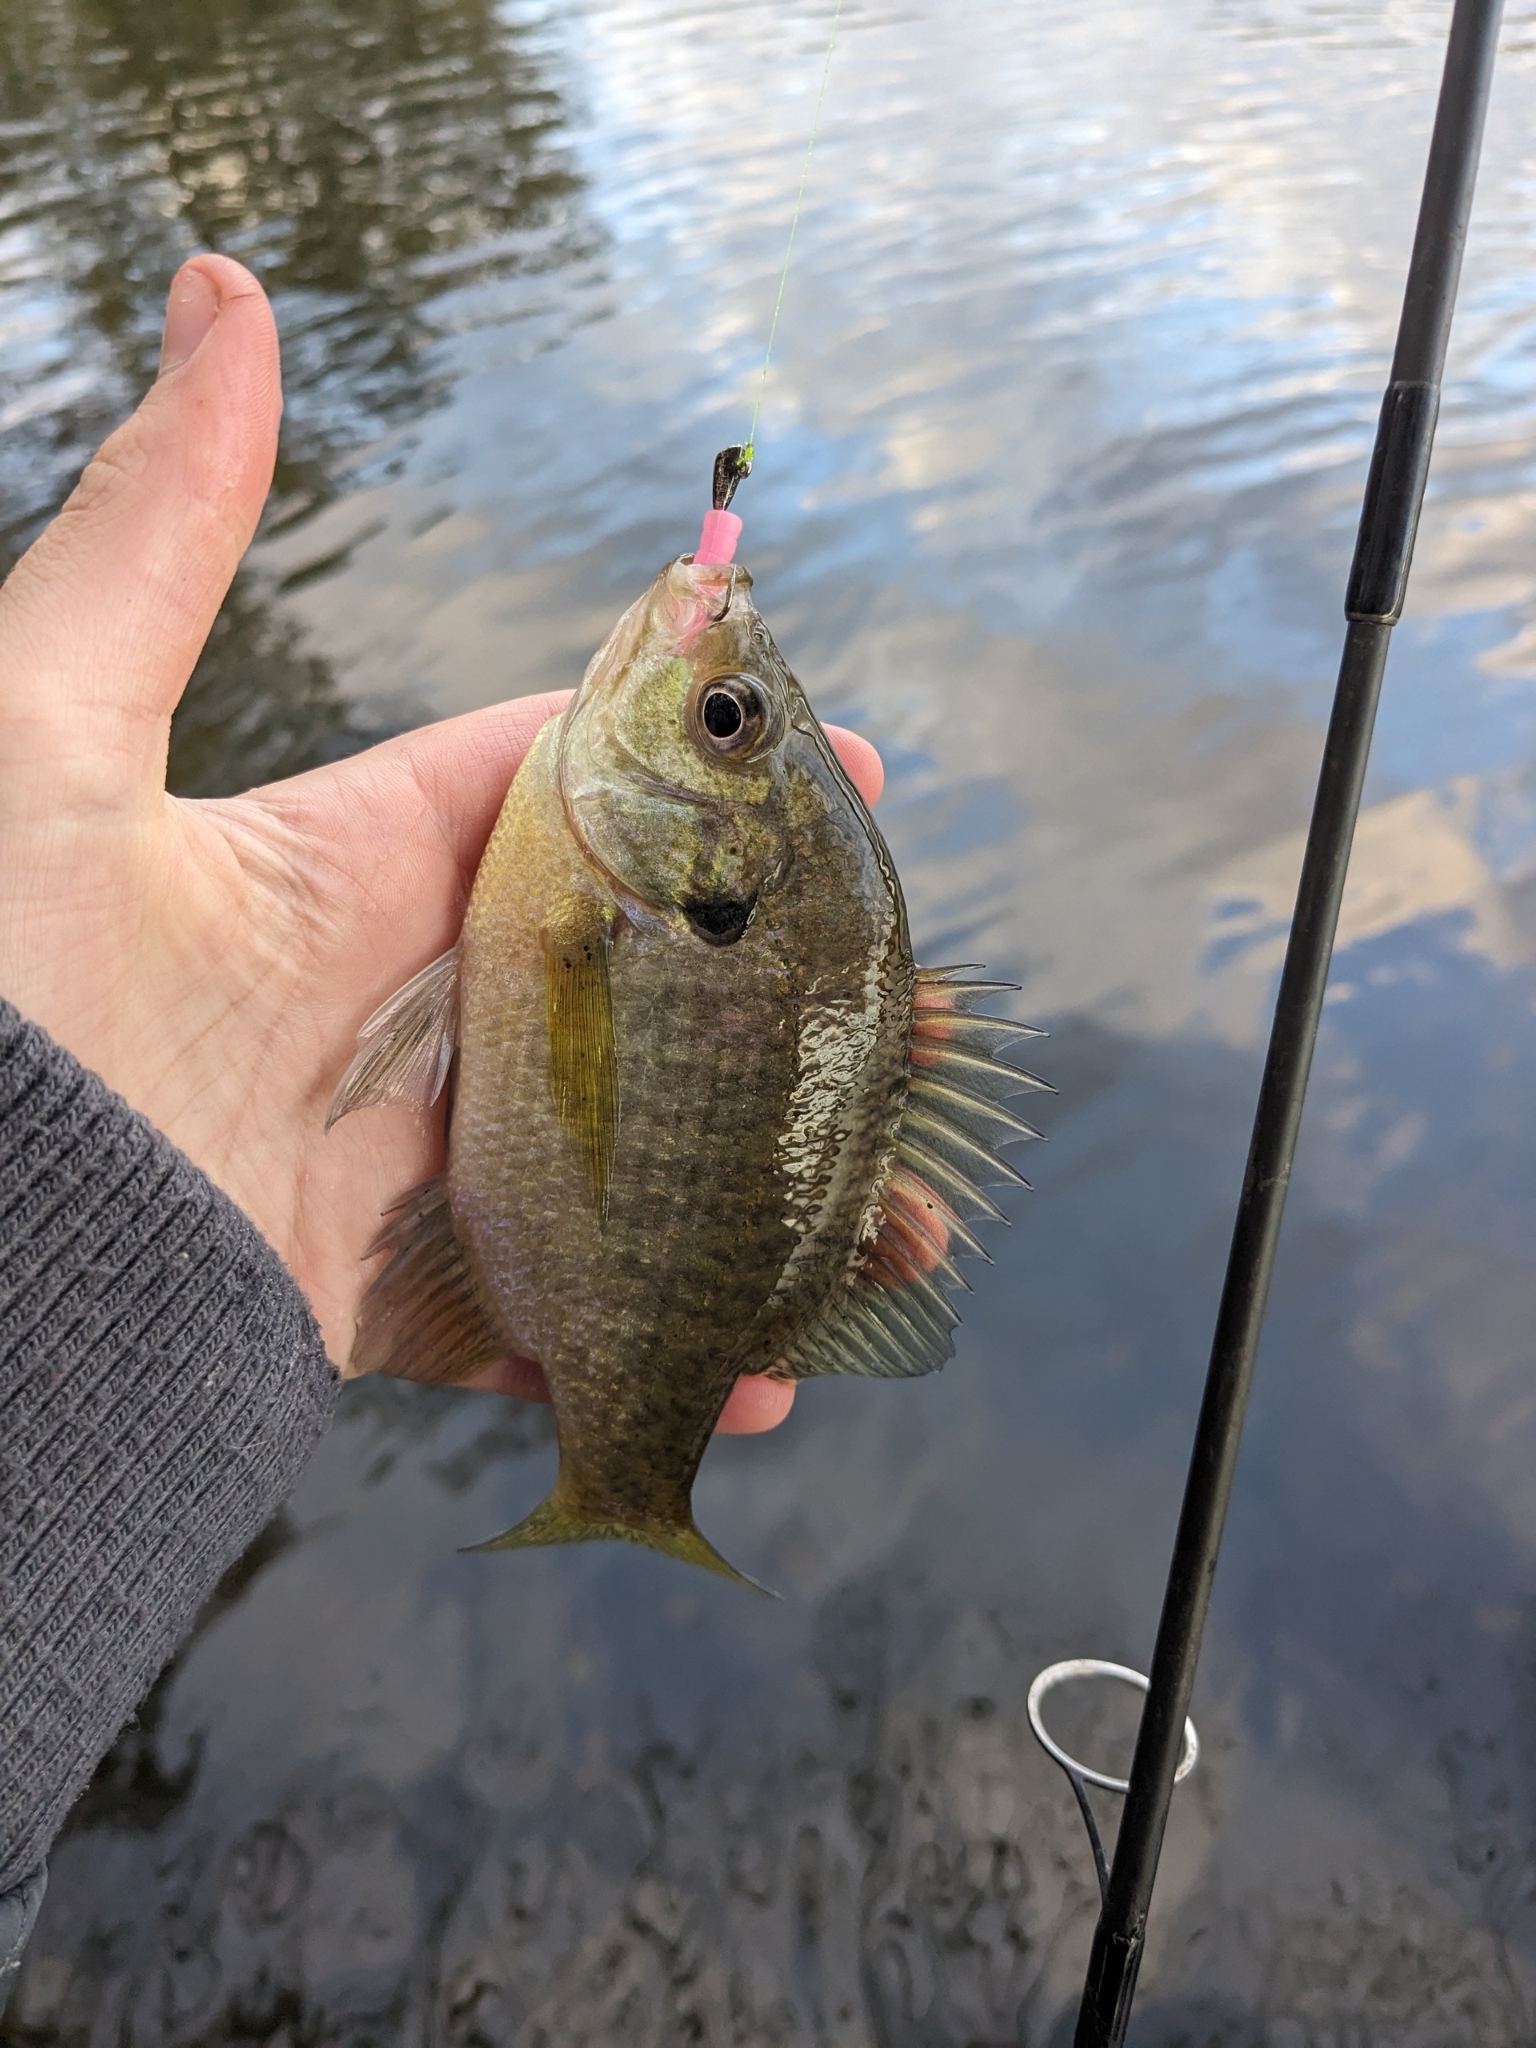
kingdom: Animalia
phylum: Chordata
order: Perciformes
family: Centrarchidae
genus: Lepomis
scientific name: Lepomis macrochirus
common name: Bluegill
